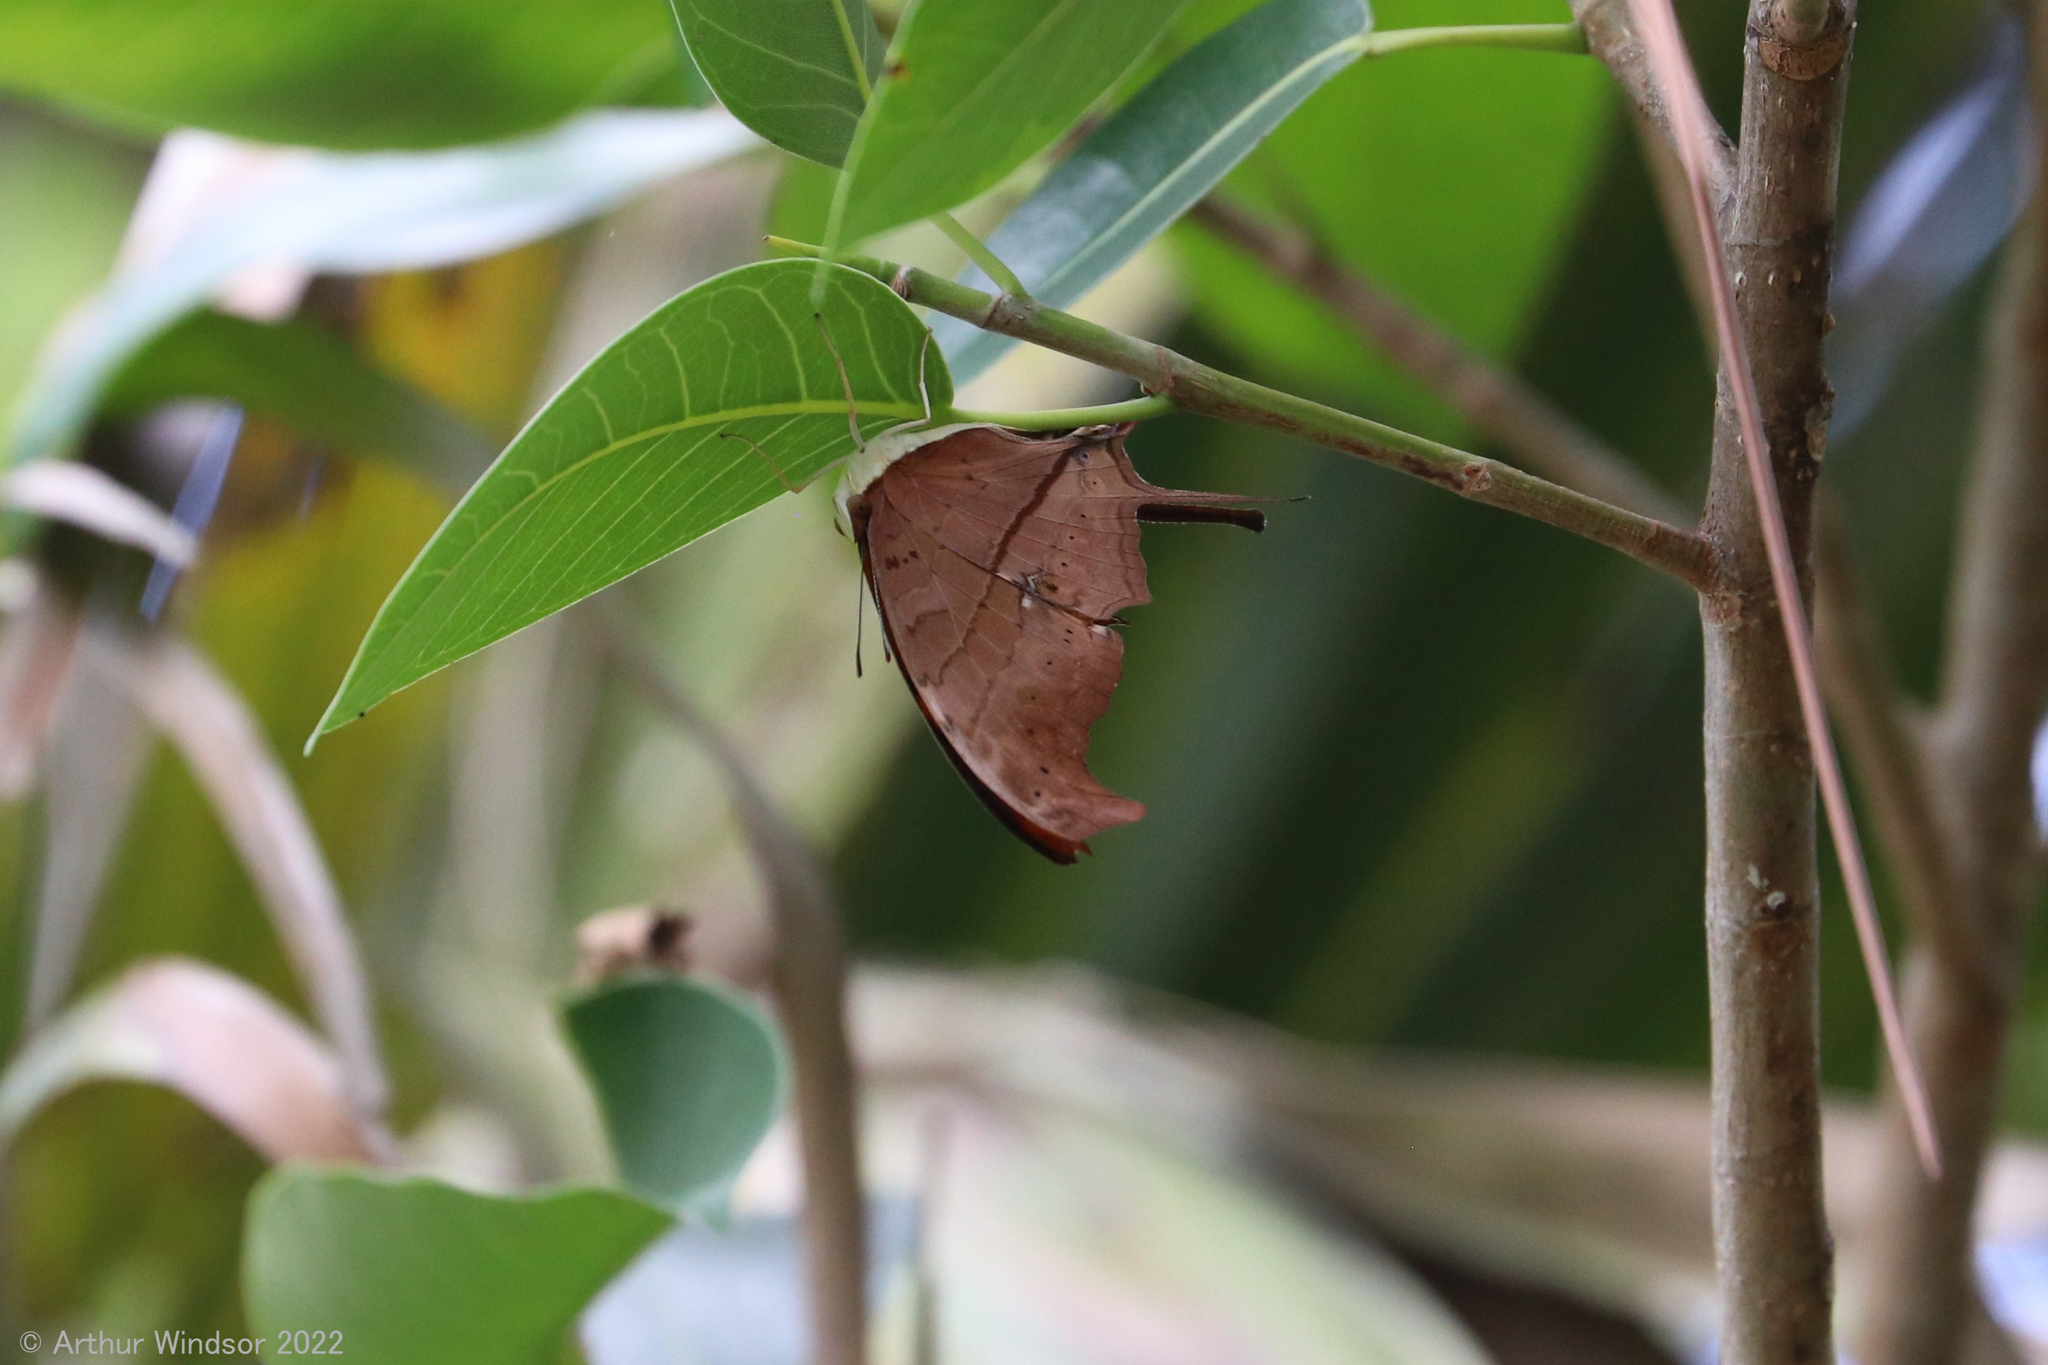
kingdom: Animalia
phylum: Arthropoda
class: Insecta
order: Lepidoptera
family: Nymphalidae
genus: Marpesia
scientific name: Marpesia petreus
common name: Red dagger wing
